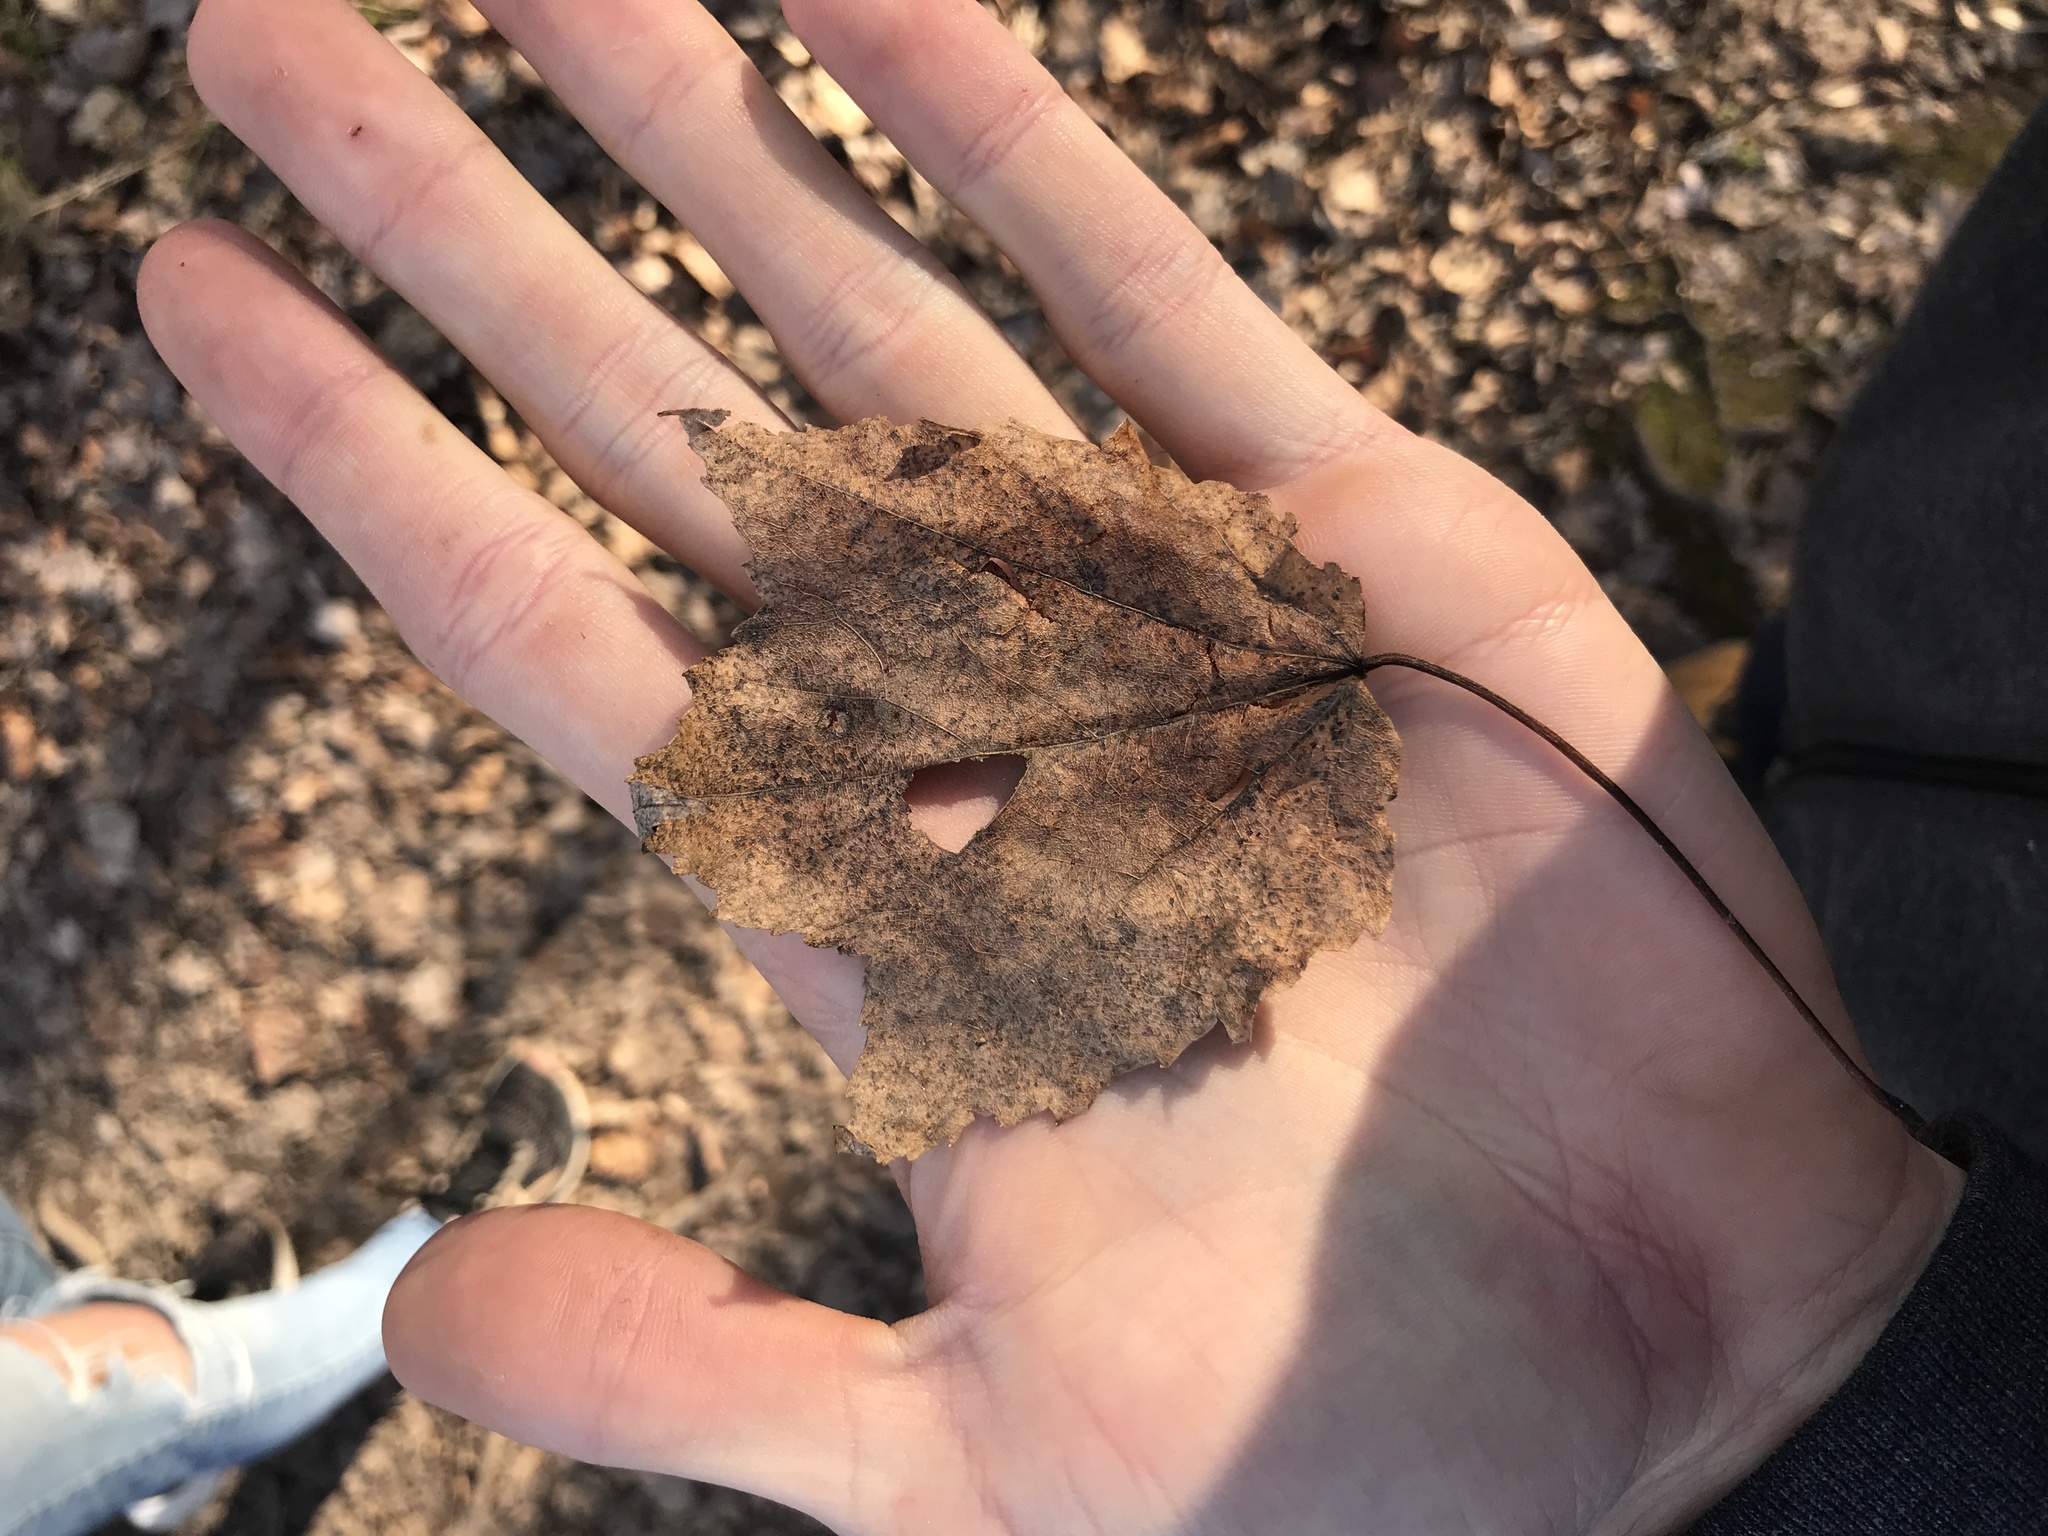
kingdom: Plantae
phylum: Tracheophyta
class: Magnoliopsida
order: Sapindales
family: Sapindaceae
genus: Acer
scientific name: Acer rubrum
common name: Red maple
